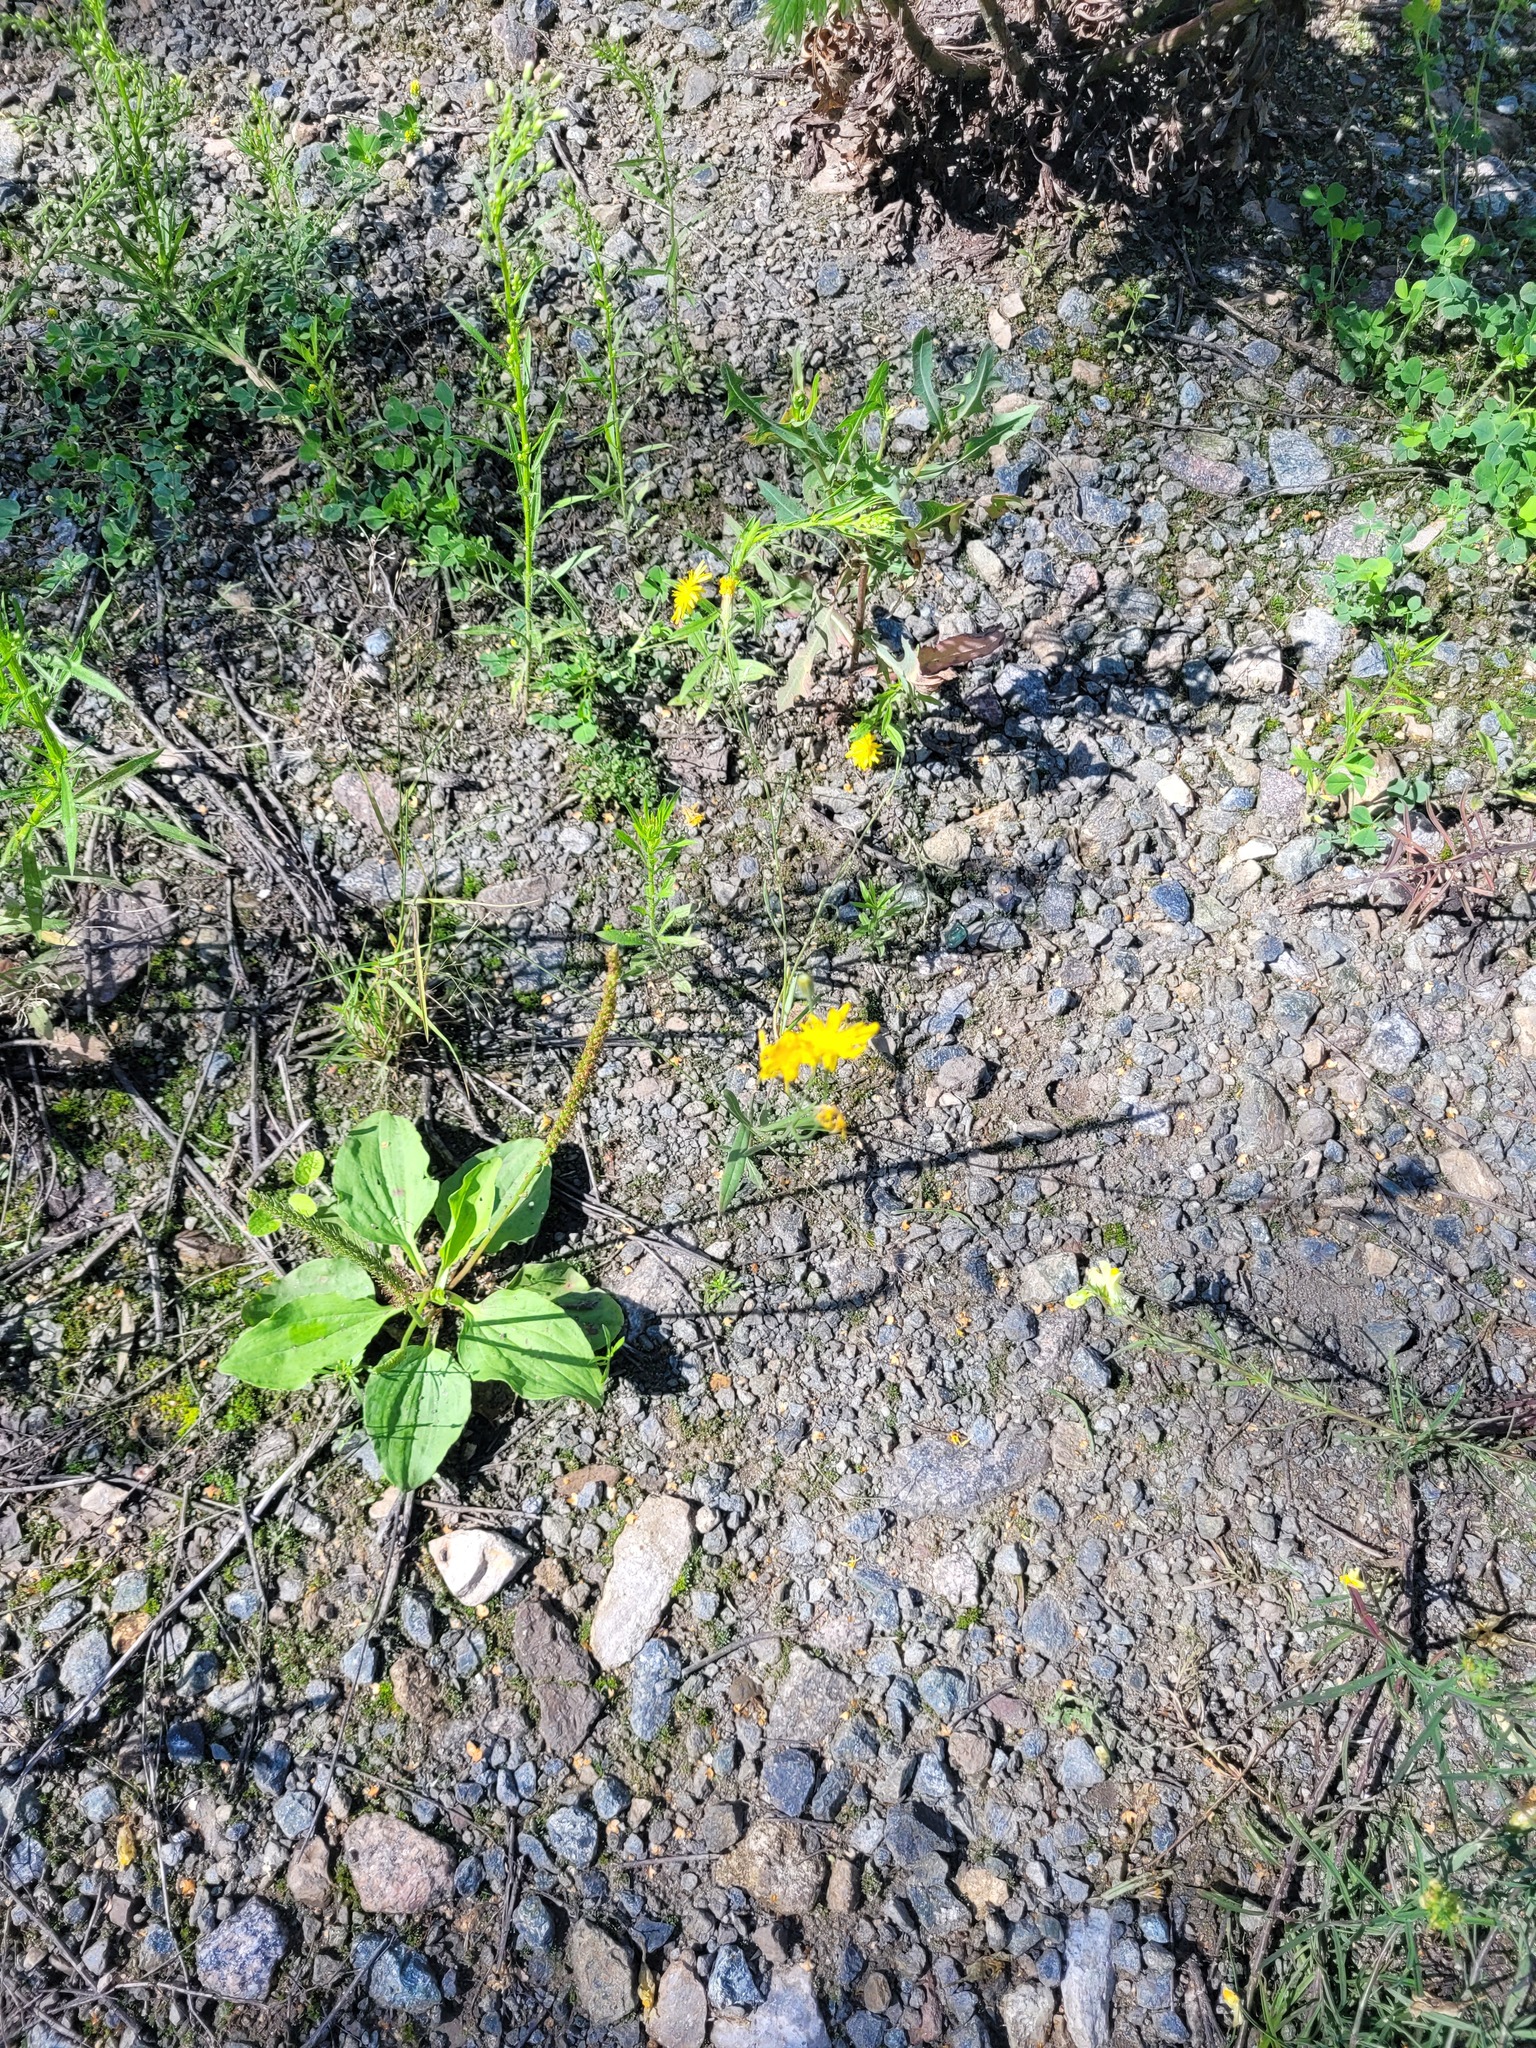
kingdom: Plantae
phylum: Tracheophyta
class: Magnoliopsida
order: Asterales
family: Asteraceae
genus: Crepis
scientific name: Crepis tectorum
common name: Narrow-leaved hawk's-beard
